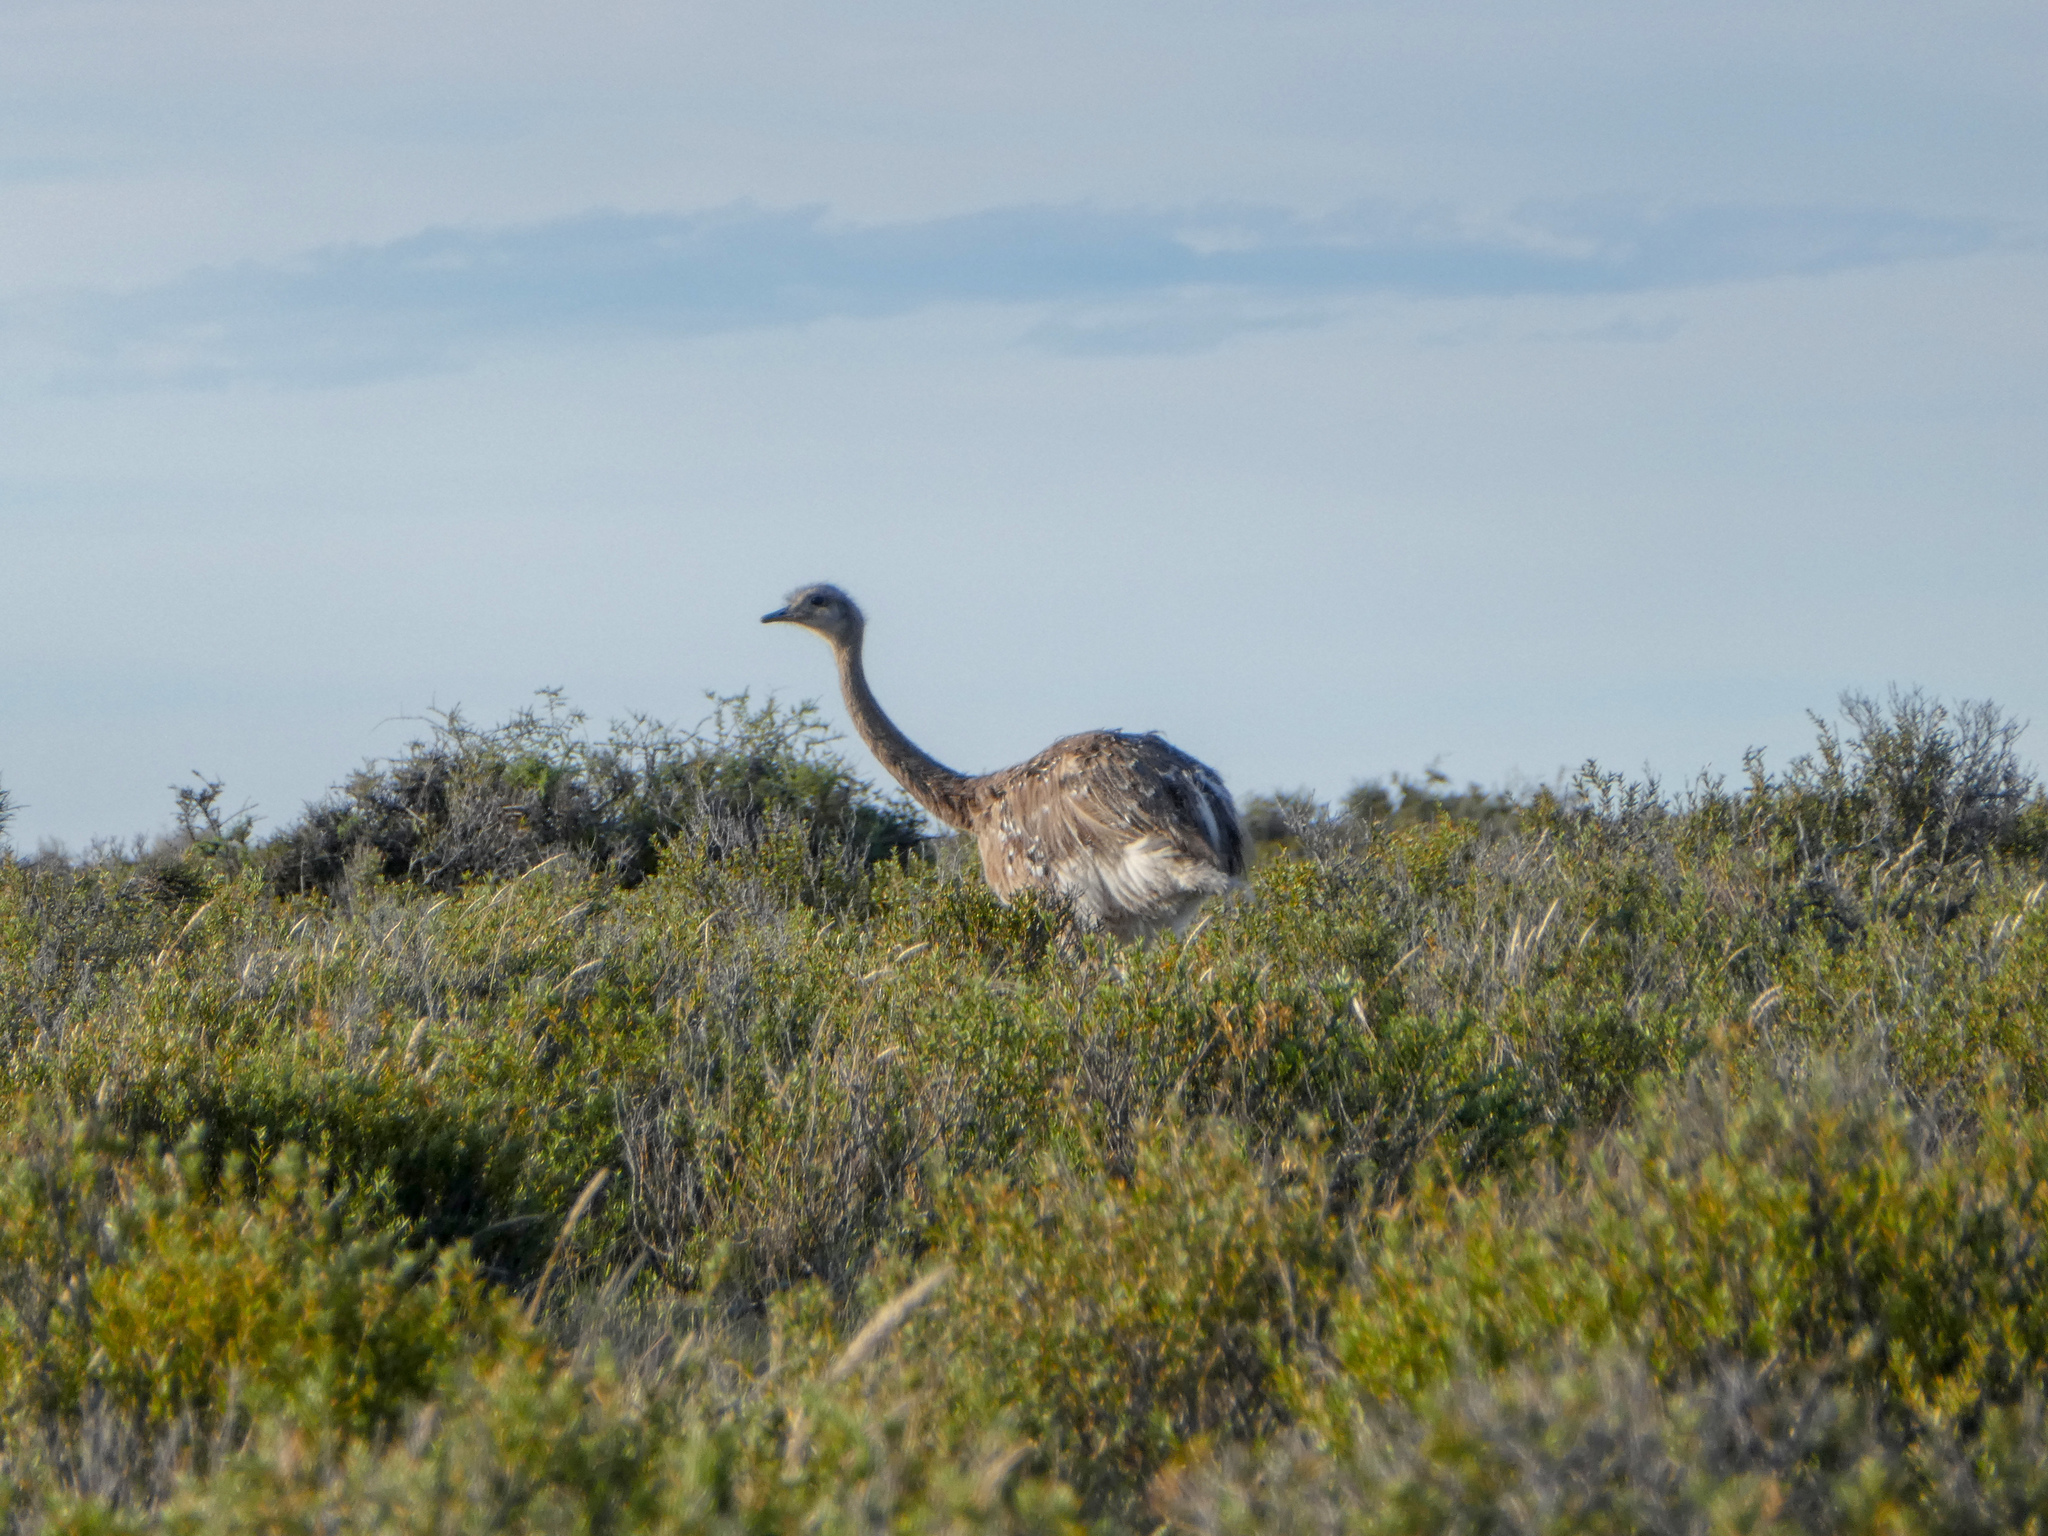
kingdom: Animalia
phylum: Chordata
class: Aves
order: Rheiformes
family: Rheidae
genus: Rhea
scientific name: Rhea pennata
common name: Lesser rhea
